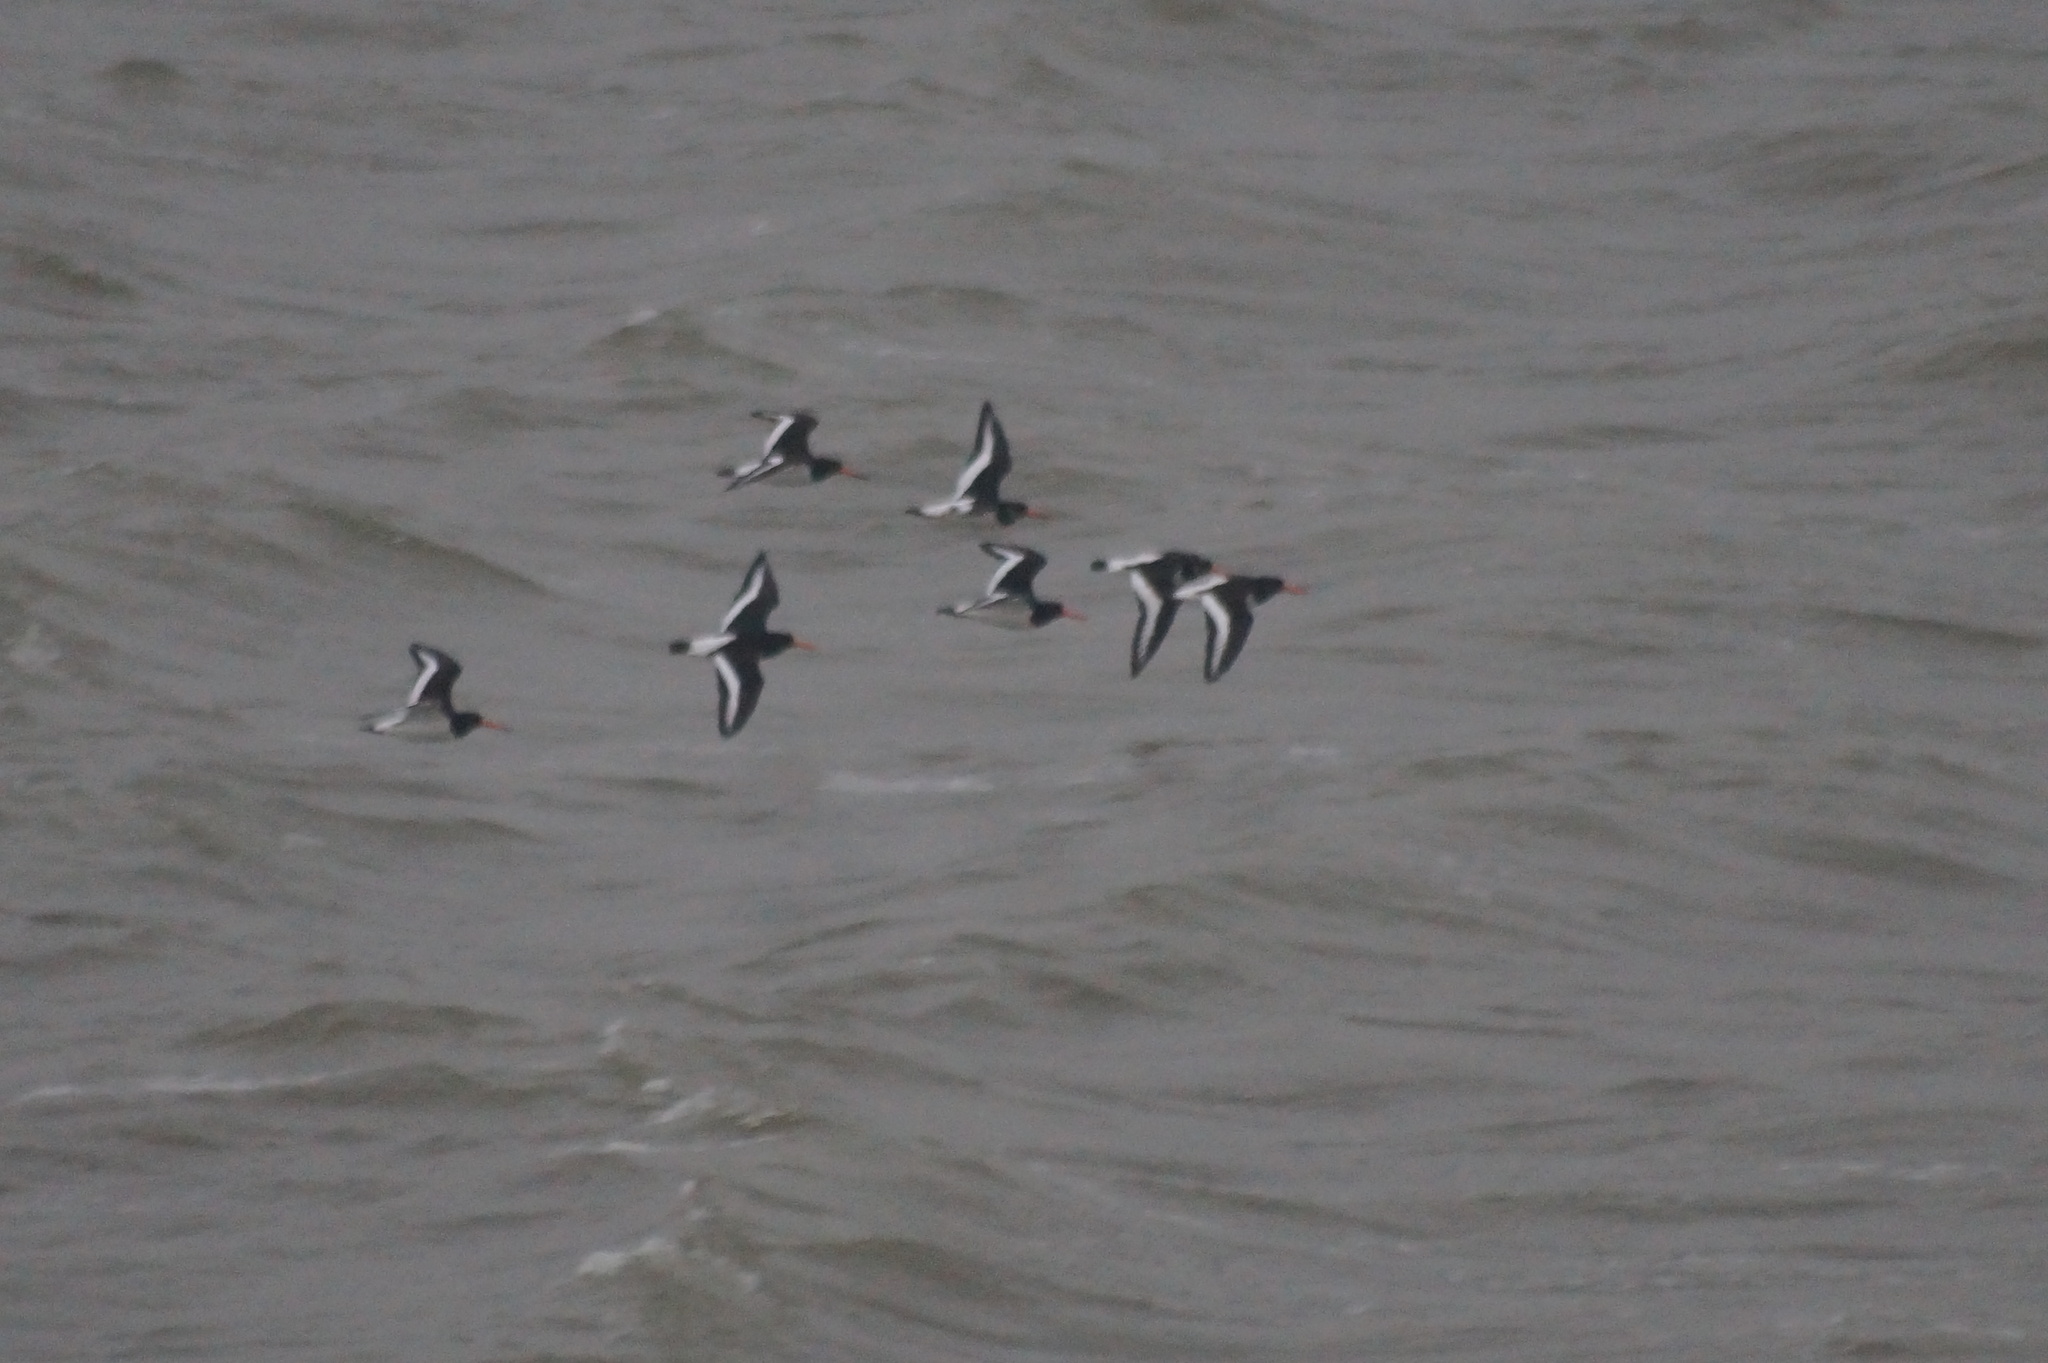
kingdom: Animalia
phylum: Chordata
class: Aves
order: Charadriiformes
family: Haematopodidae
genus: Haematopus
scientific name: Haematopus ostralegus
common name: Eurasian oystercatcher
